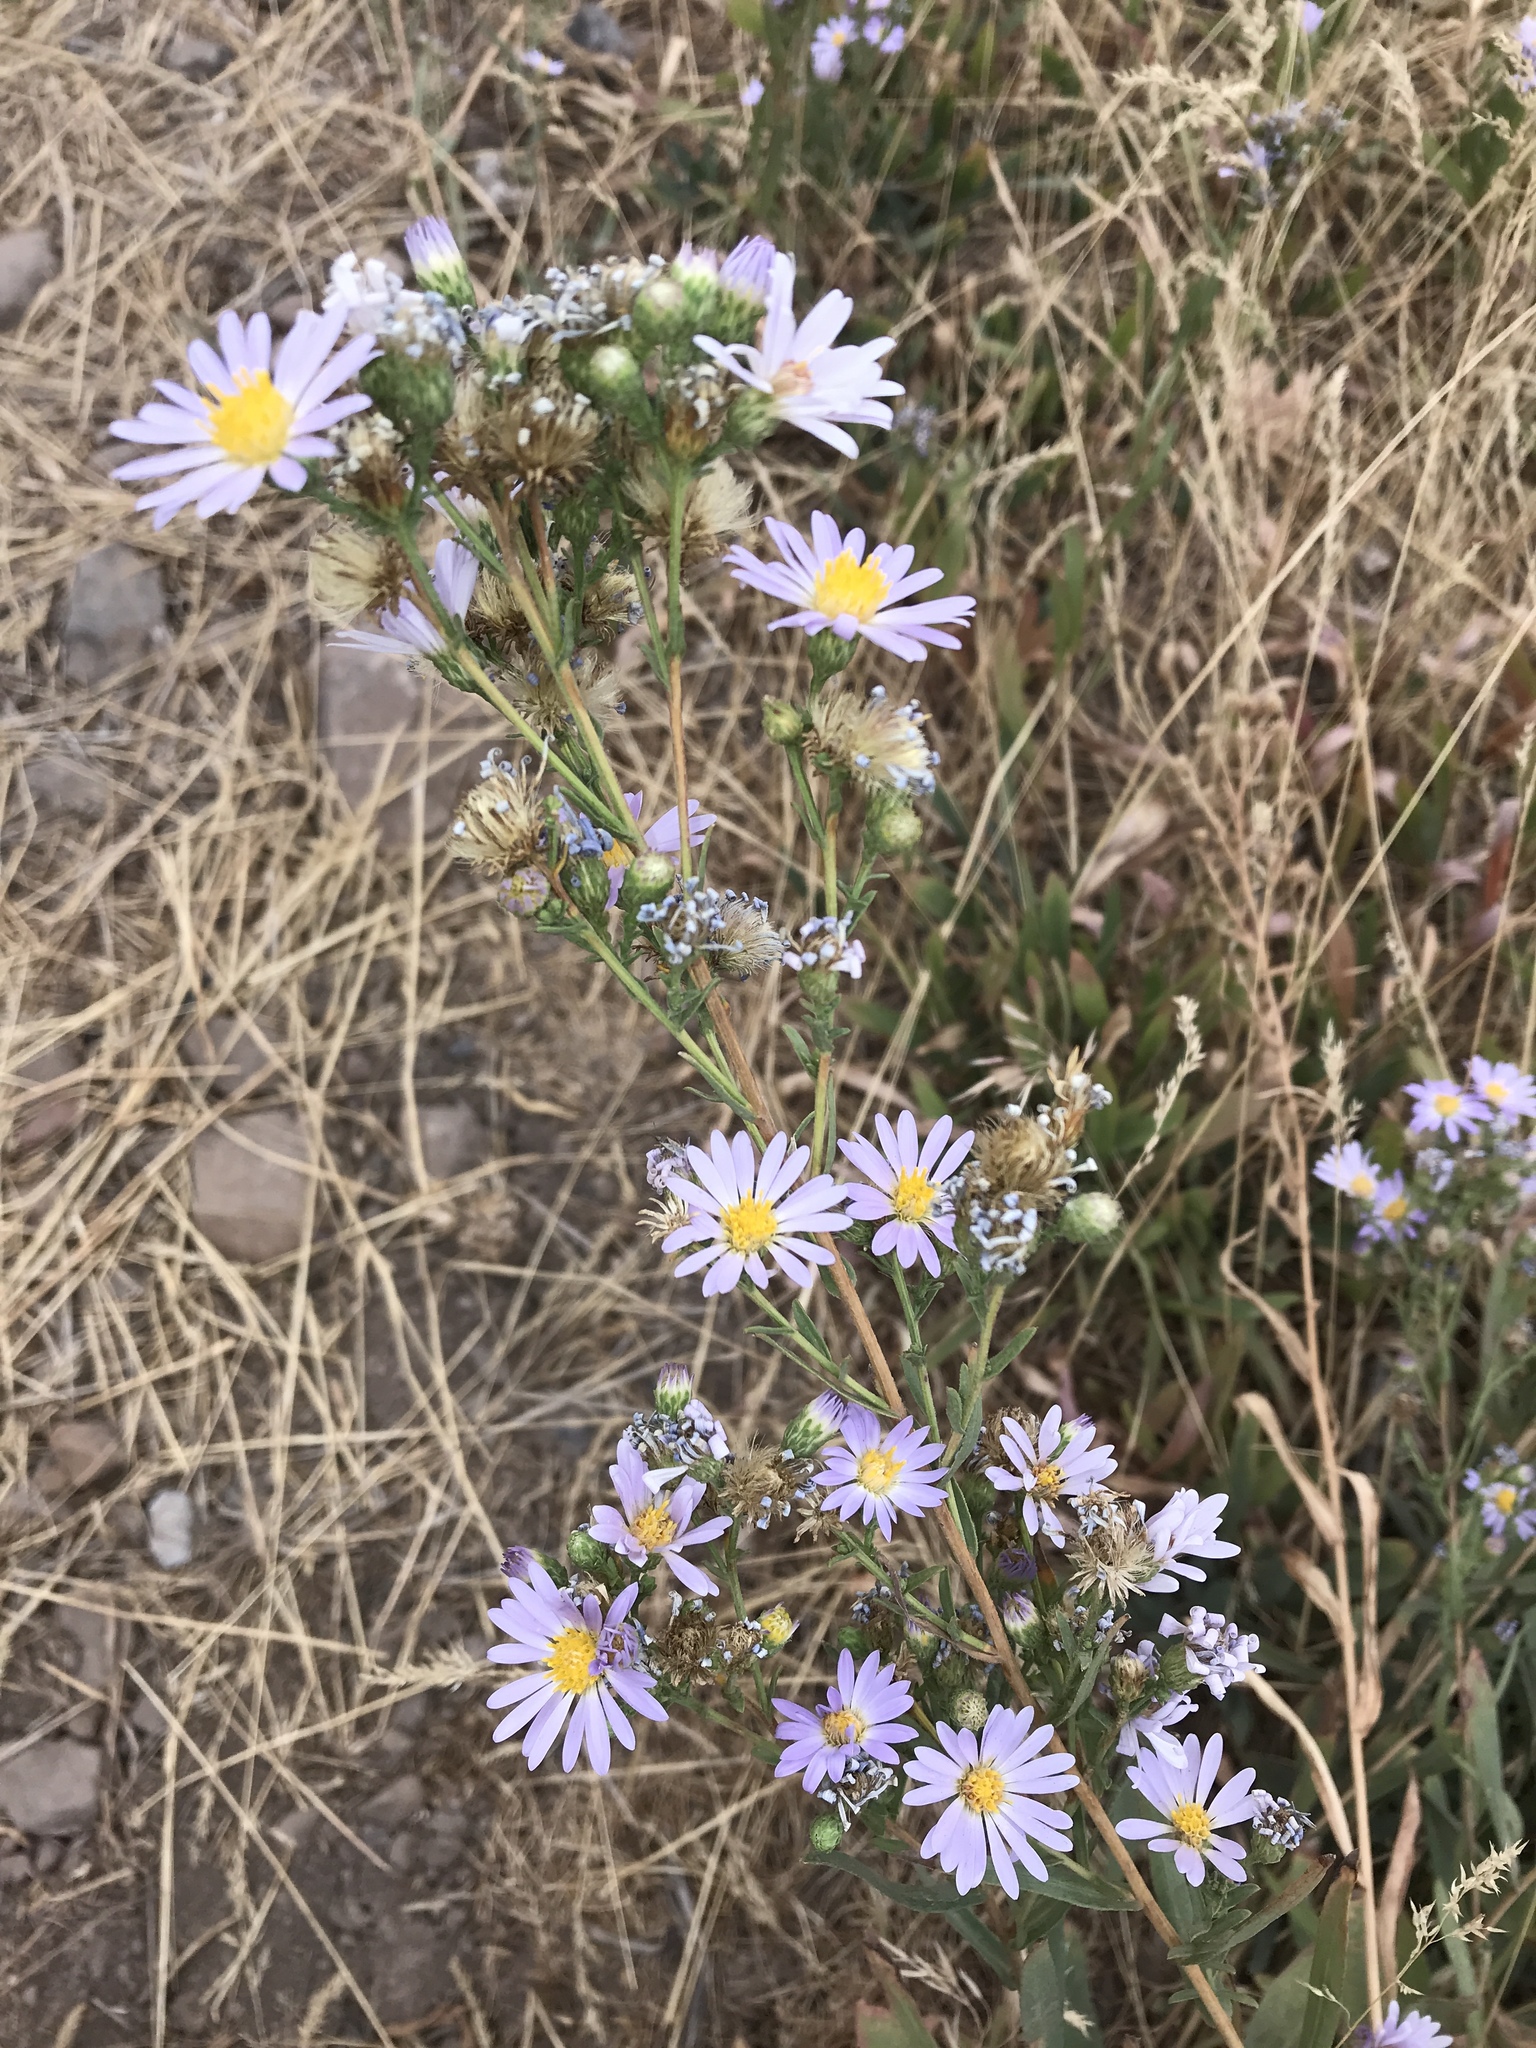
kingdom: Plantae
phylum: Tracheophyta
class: Magnoliopsida
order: Asterales
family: Asteraceae
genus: Symphyotrichum
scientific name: Symphyotrichum ascendens
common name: Intermountain aster
